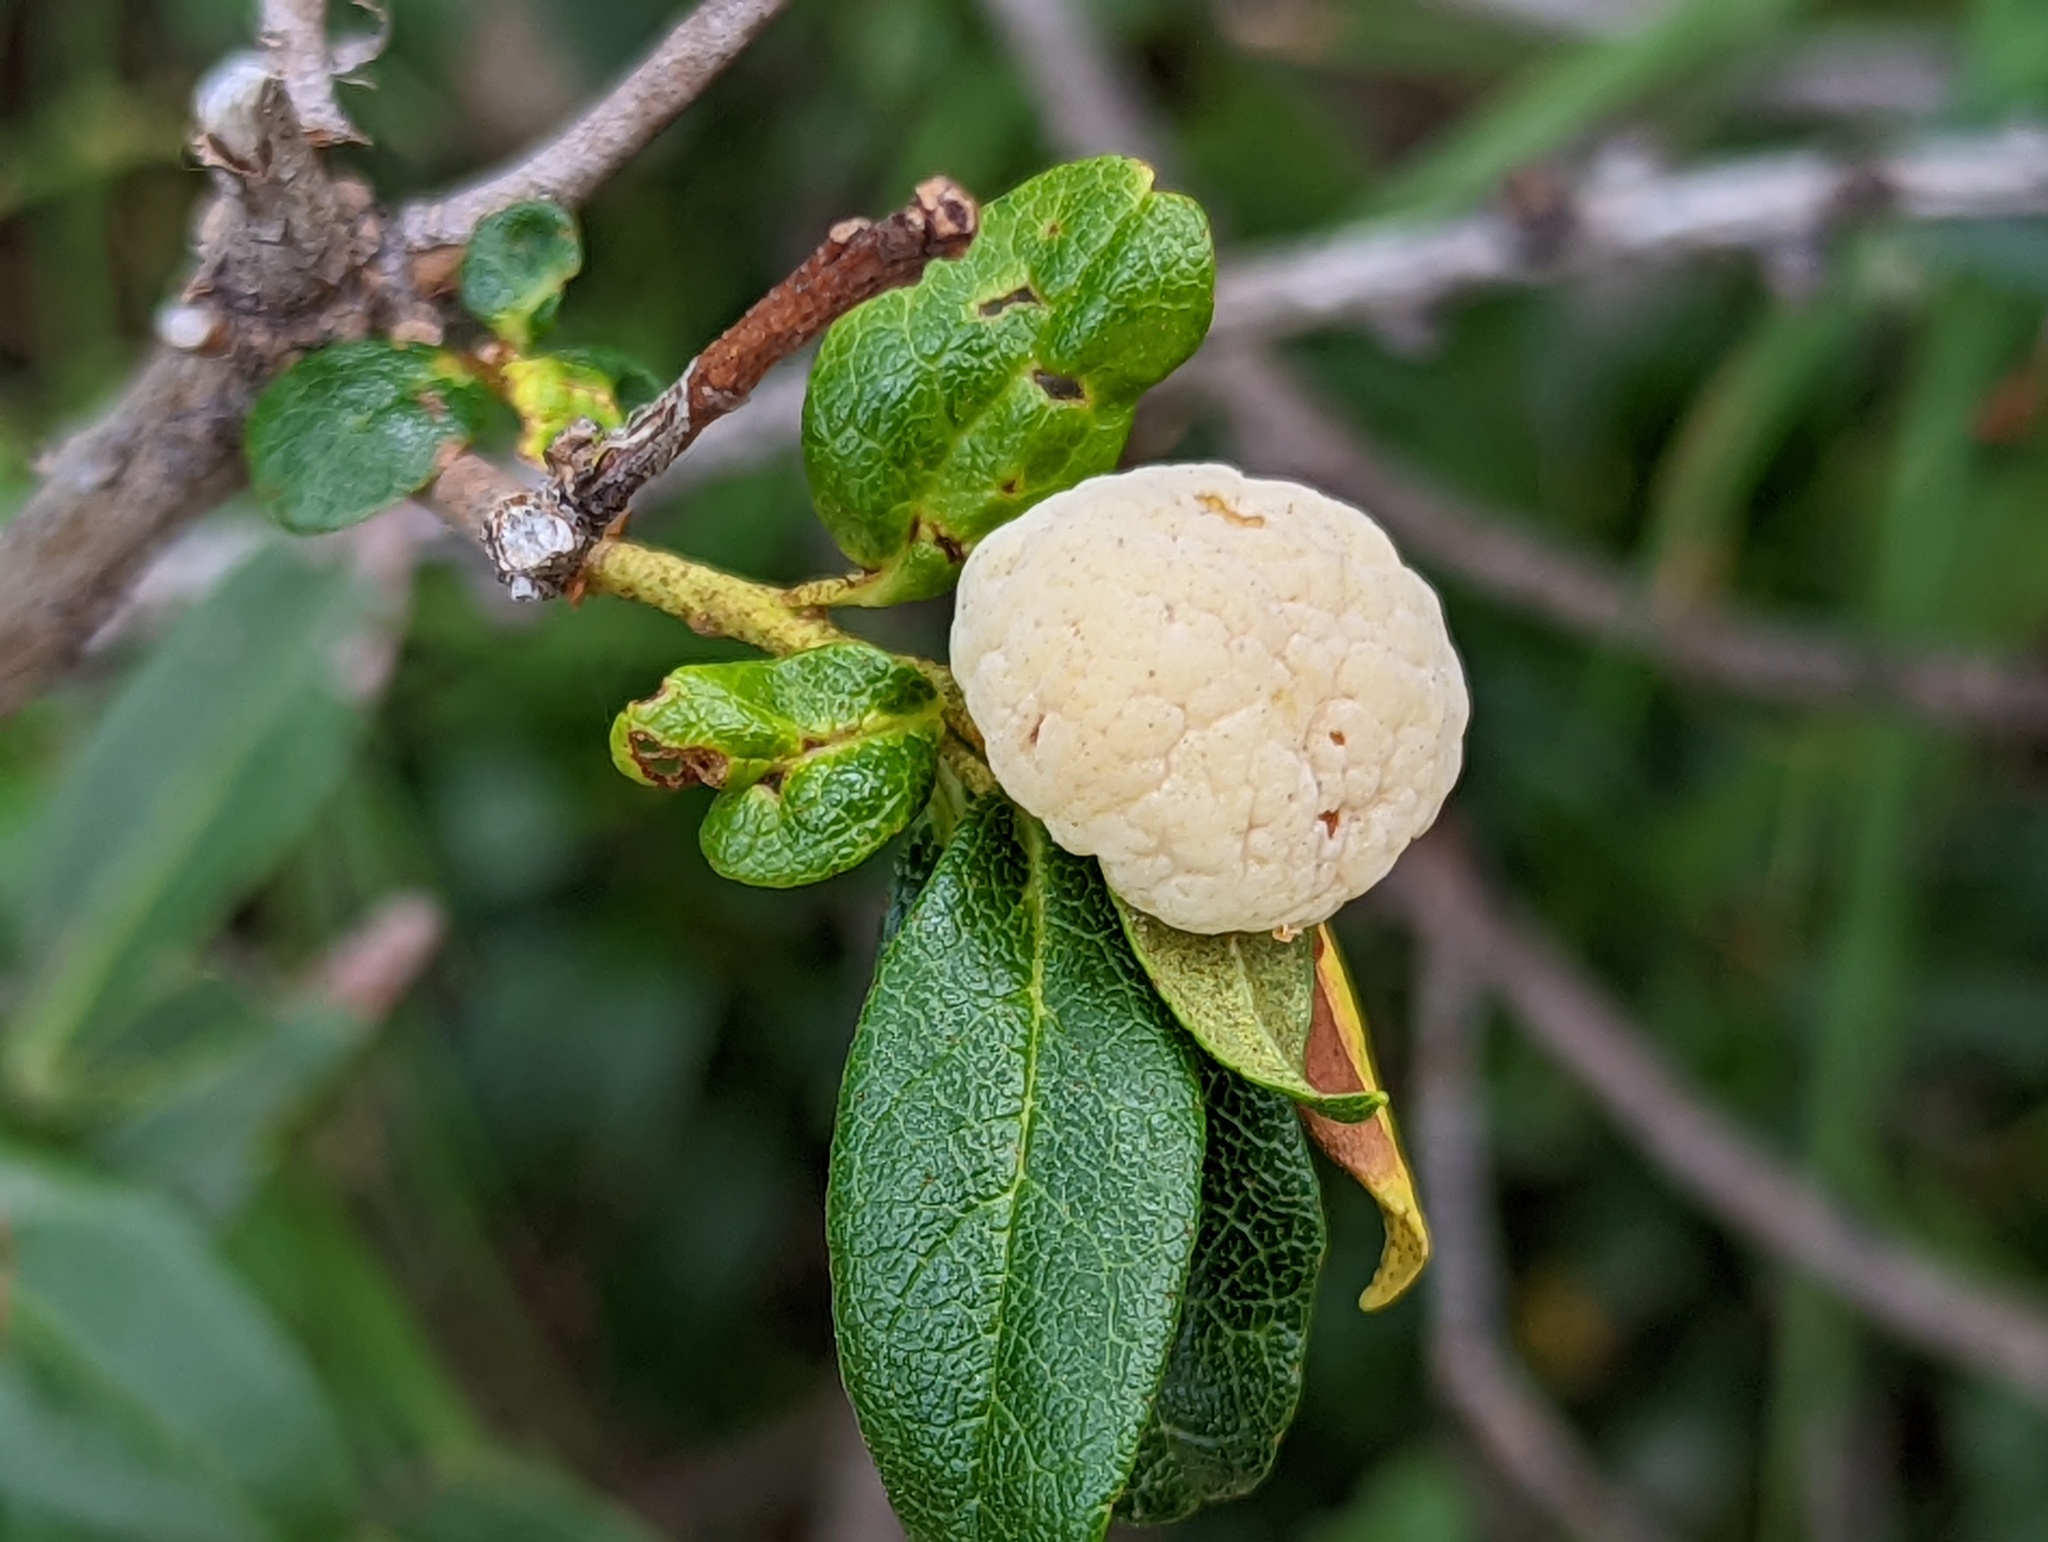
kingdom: Fungi
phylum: Basidiomycota
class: Exobasidiomycetes
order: Exobasidiales
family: Exobasidiaceae
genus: Exobasidium
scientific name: Exobasidium rhododendri
